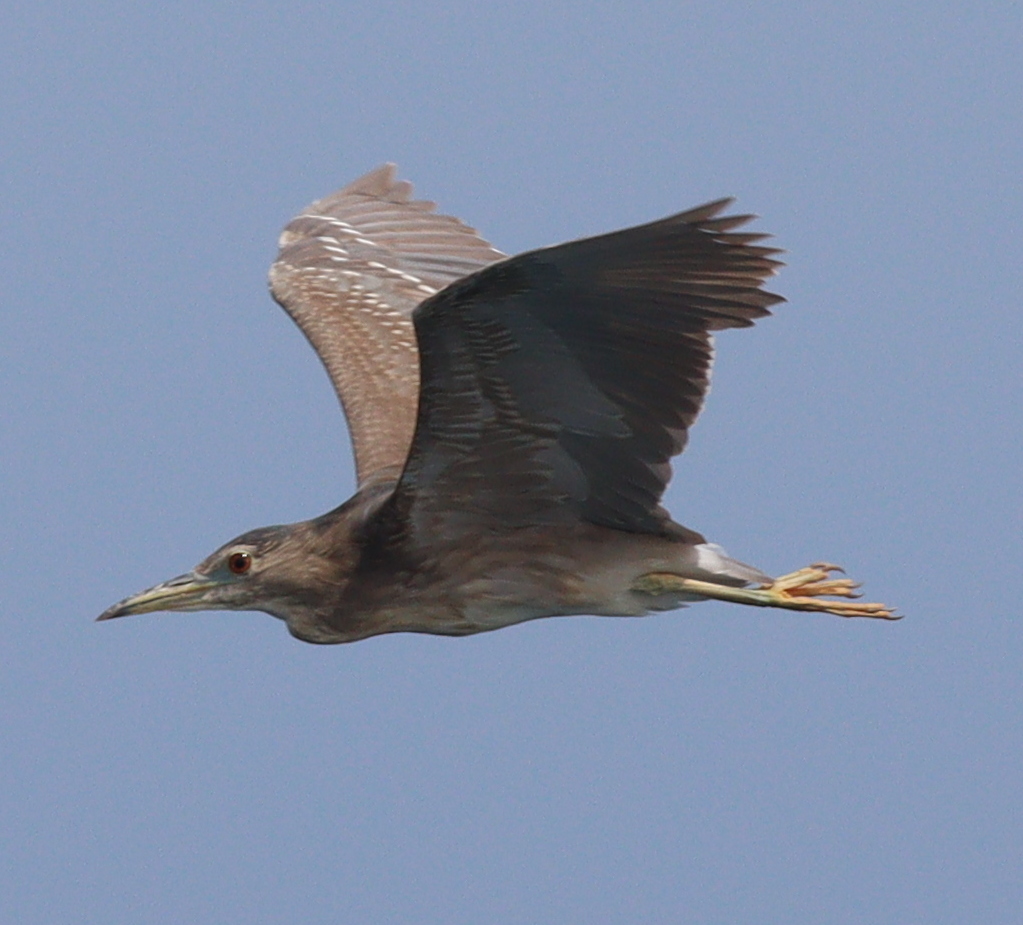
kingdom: Animalia
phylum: Chordata
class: Aves
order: Pelecaniformes
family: Ardeidae
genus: Nycticorax
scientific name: Nycticorax nycticorax
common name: Black-crowned night heron
